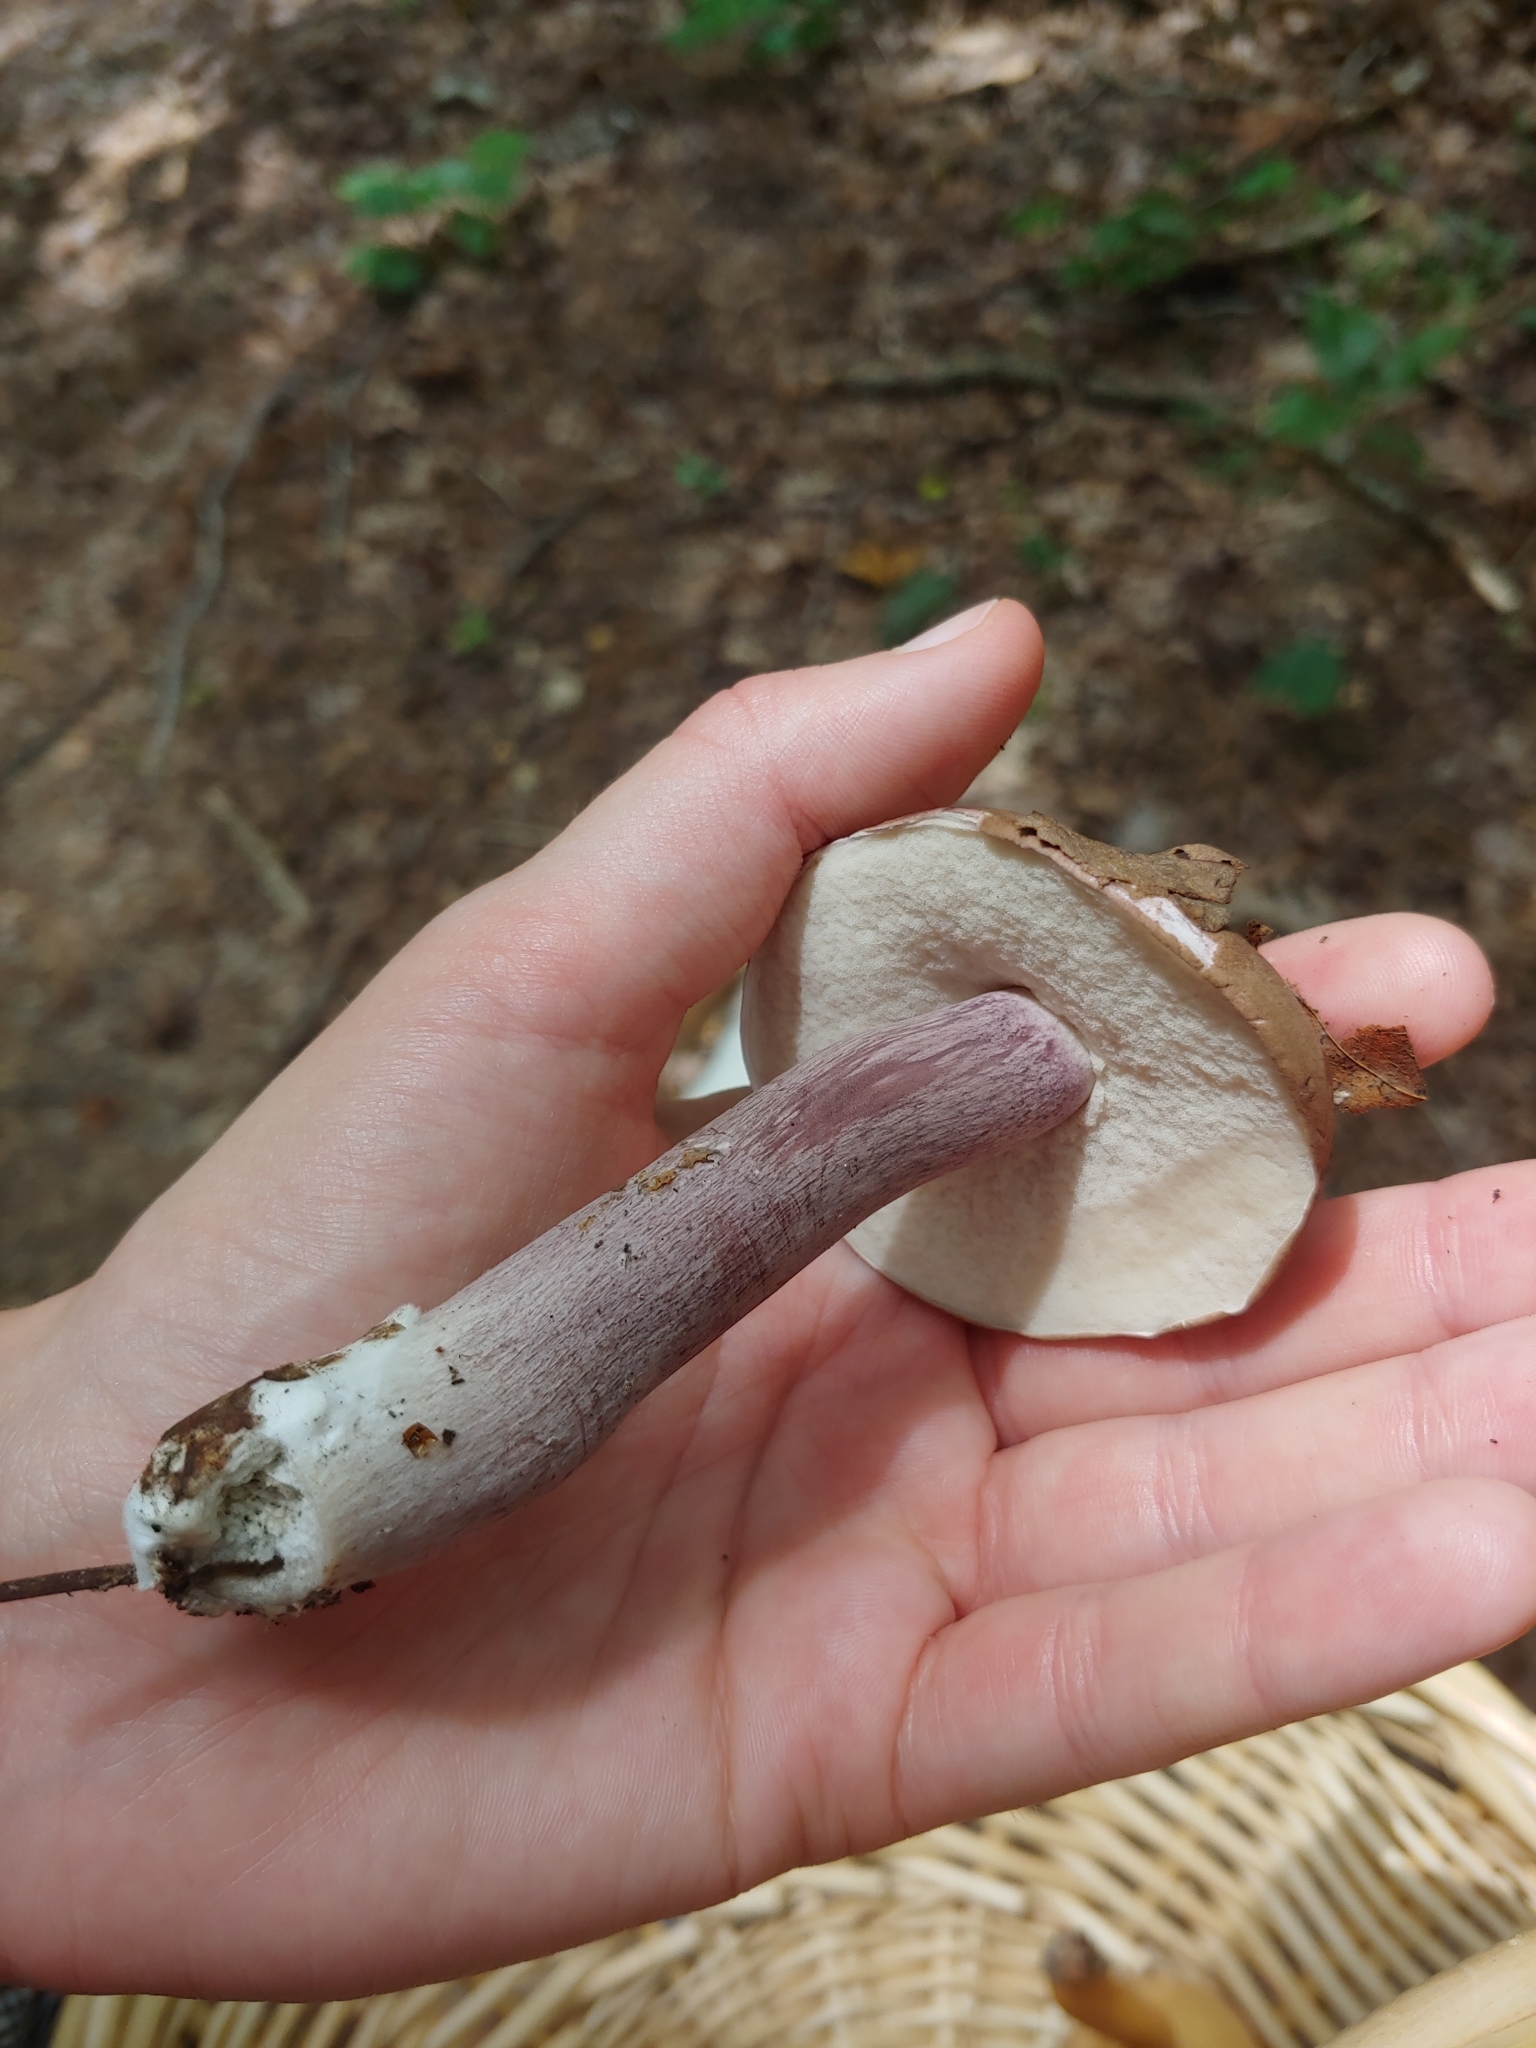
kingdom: Fungi
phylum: Basidiomycota
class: Agaricomycetes
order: Boletales
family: Boletaceae
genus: Tylopilus
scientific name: Tylopilus plumbeoviolaceus
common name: Violet gray bolete
